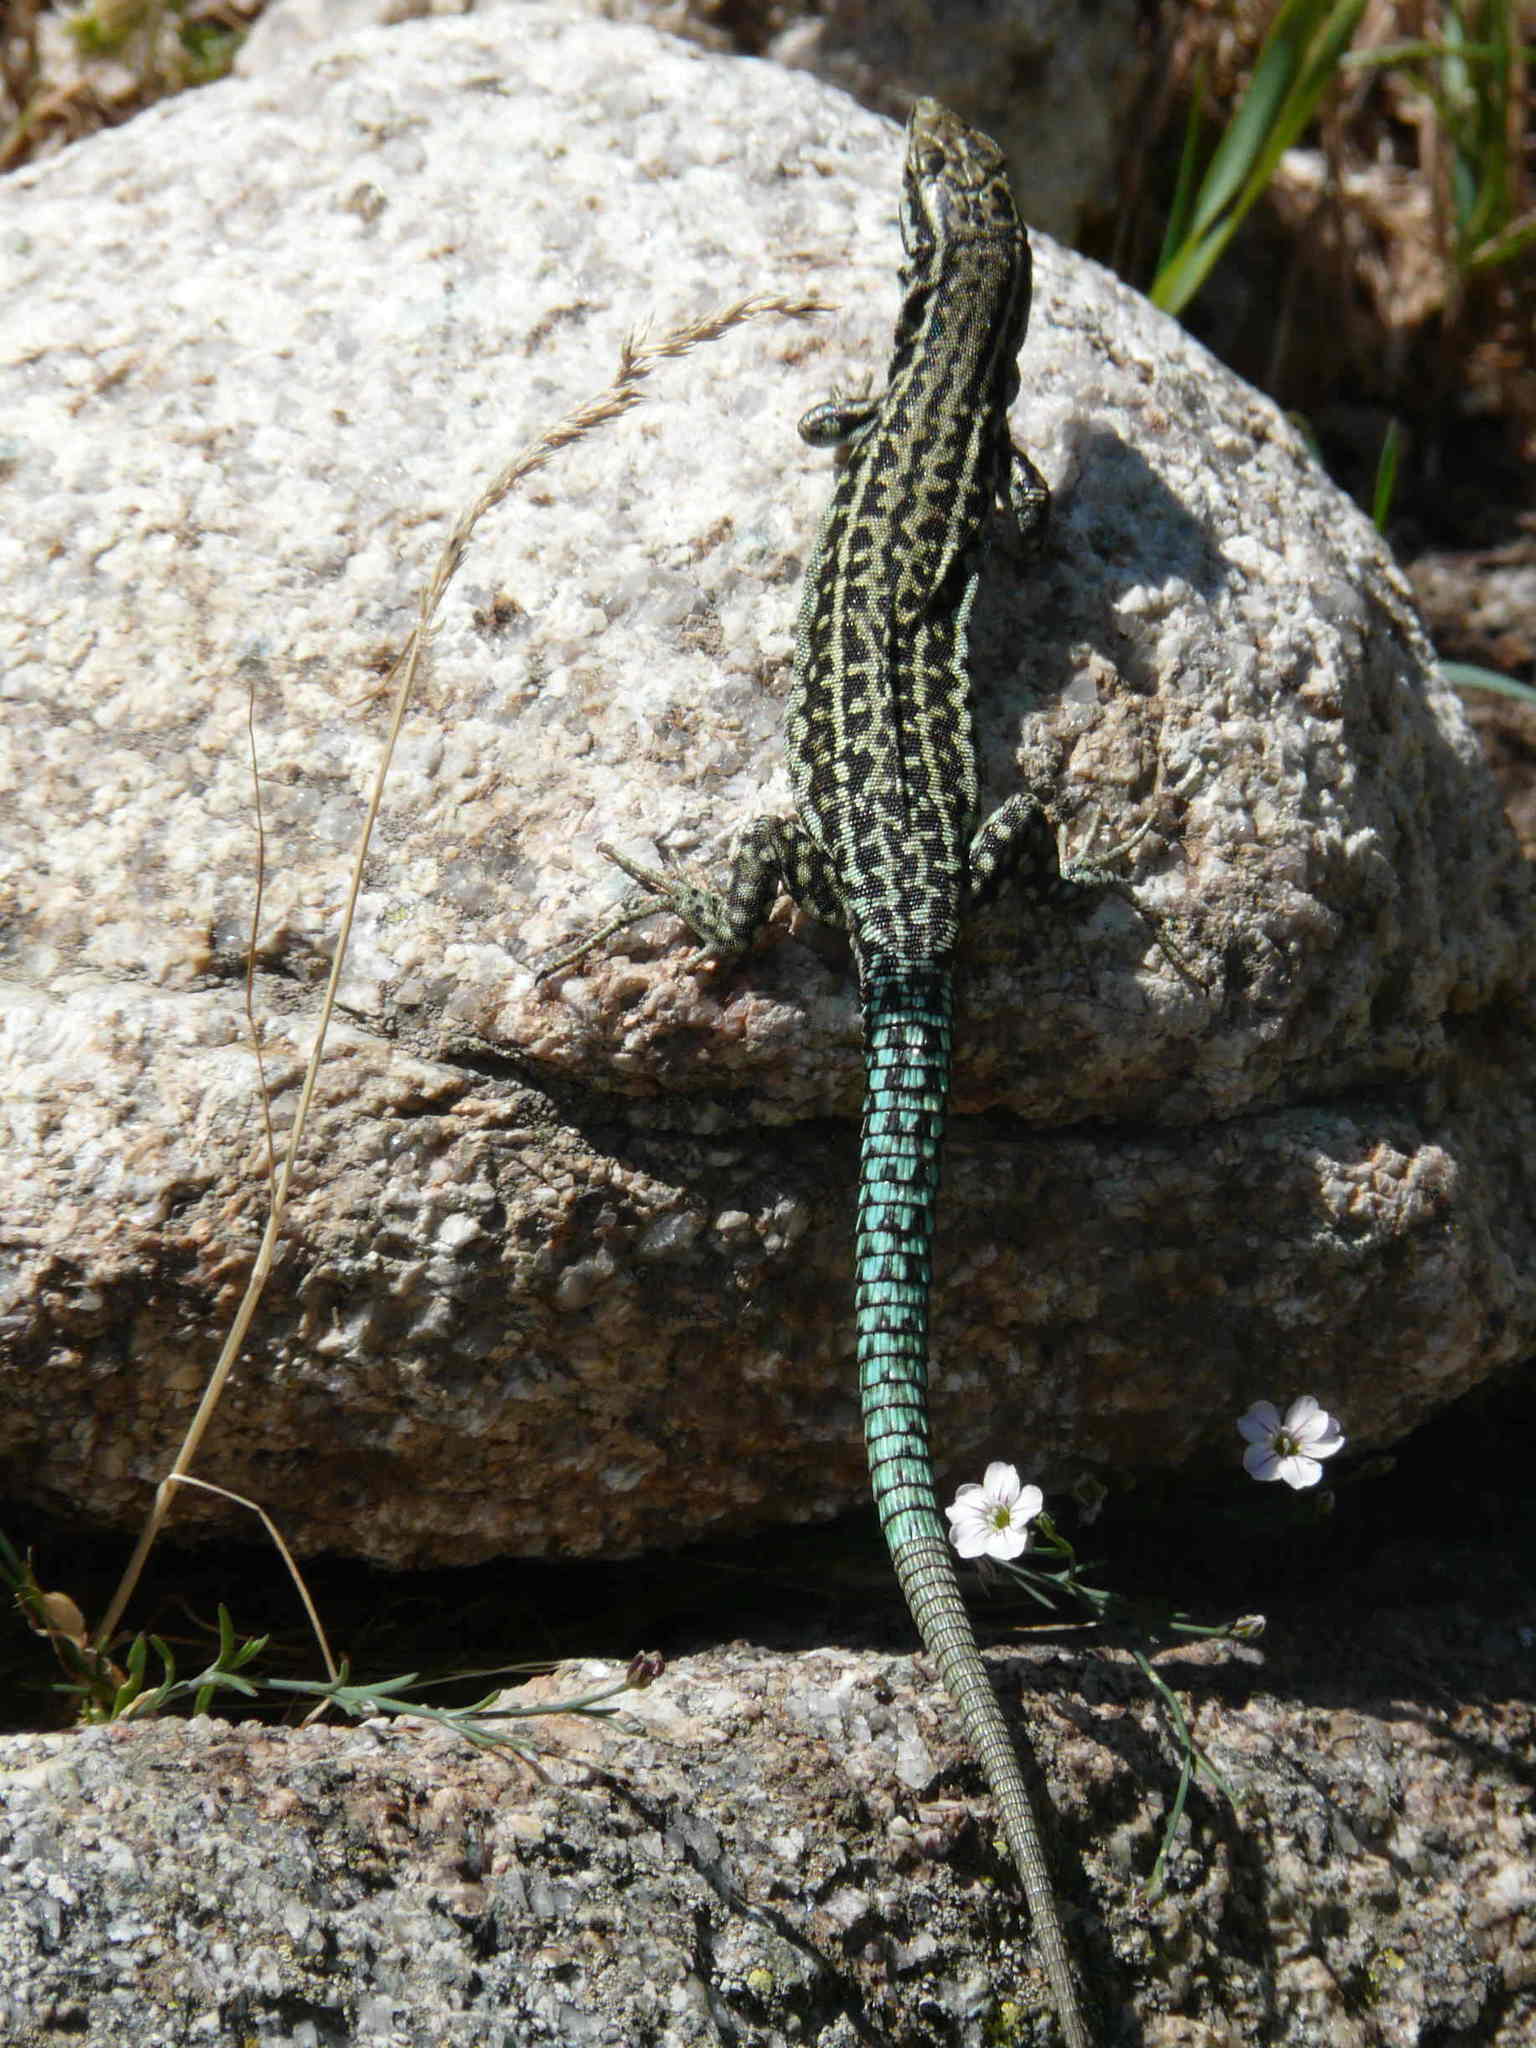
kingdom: Animalia
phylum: Chordata
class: Squamata
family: Lacertidae
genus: Podarcis
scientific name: Podarcis tiliguerta
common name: Tyrrhenian wall lizard
